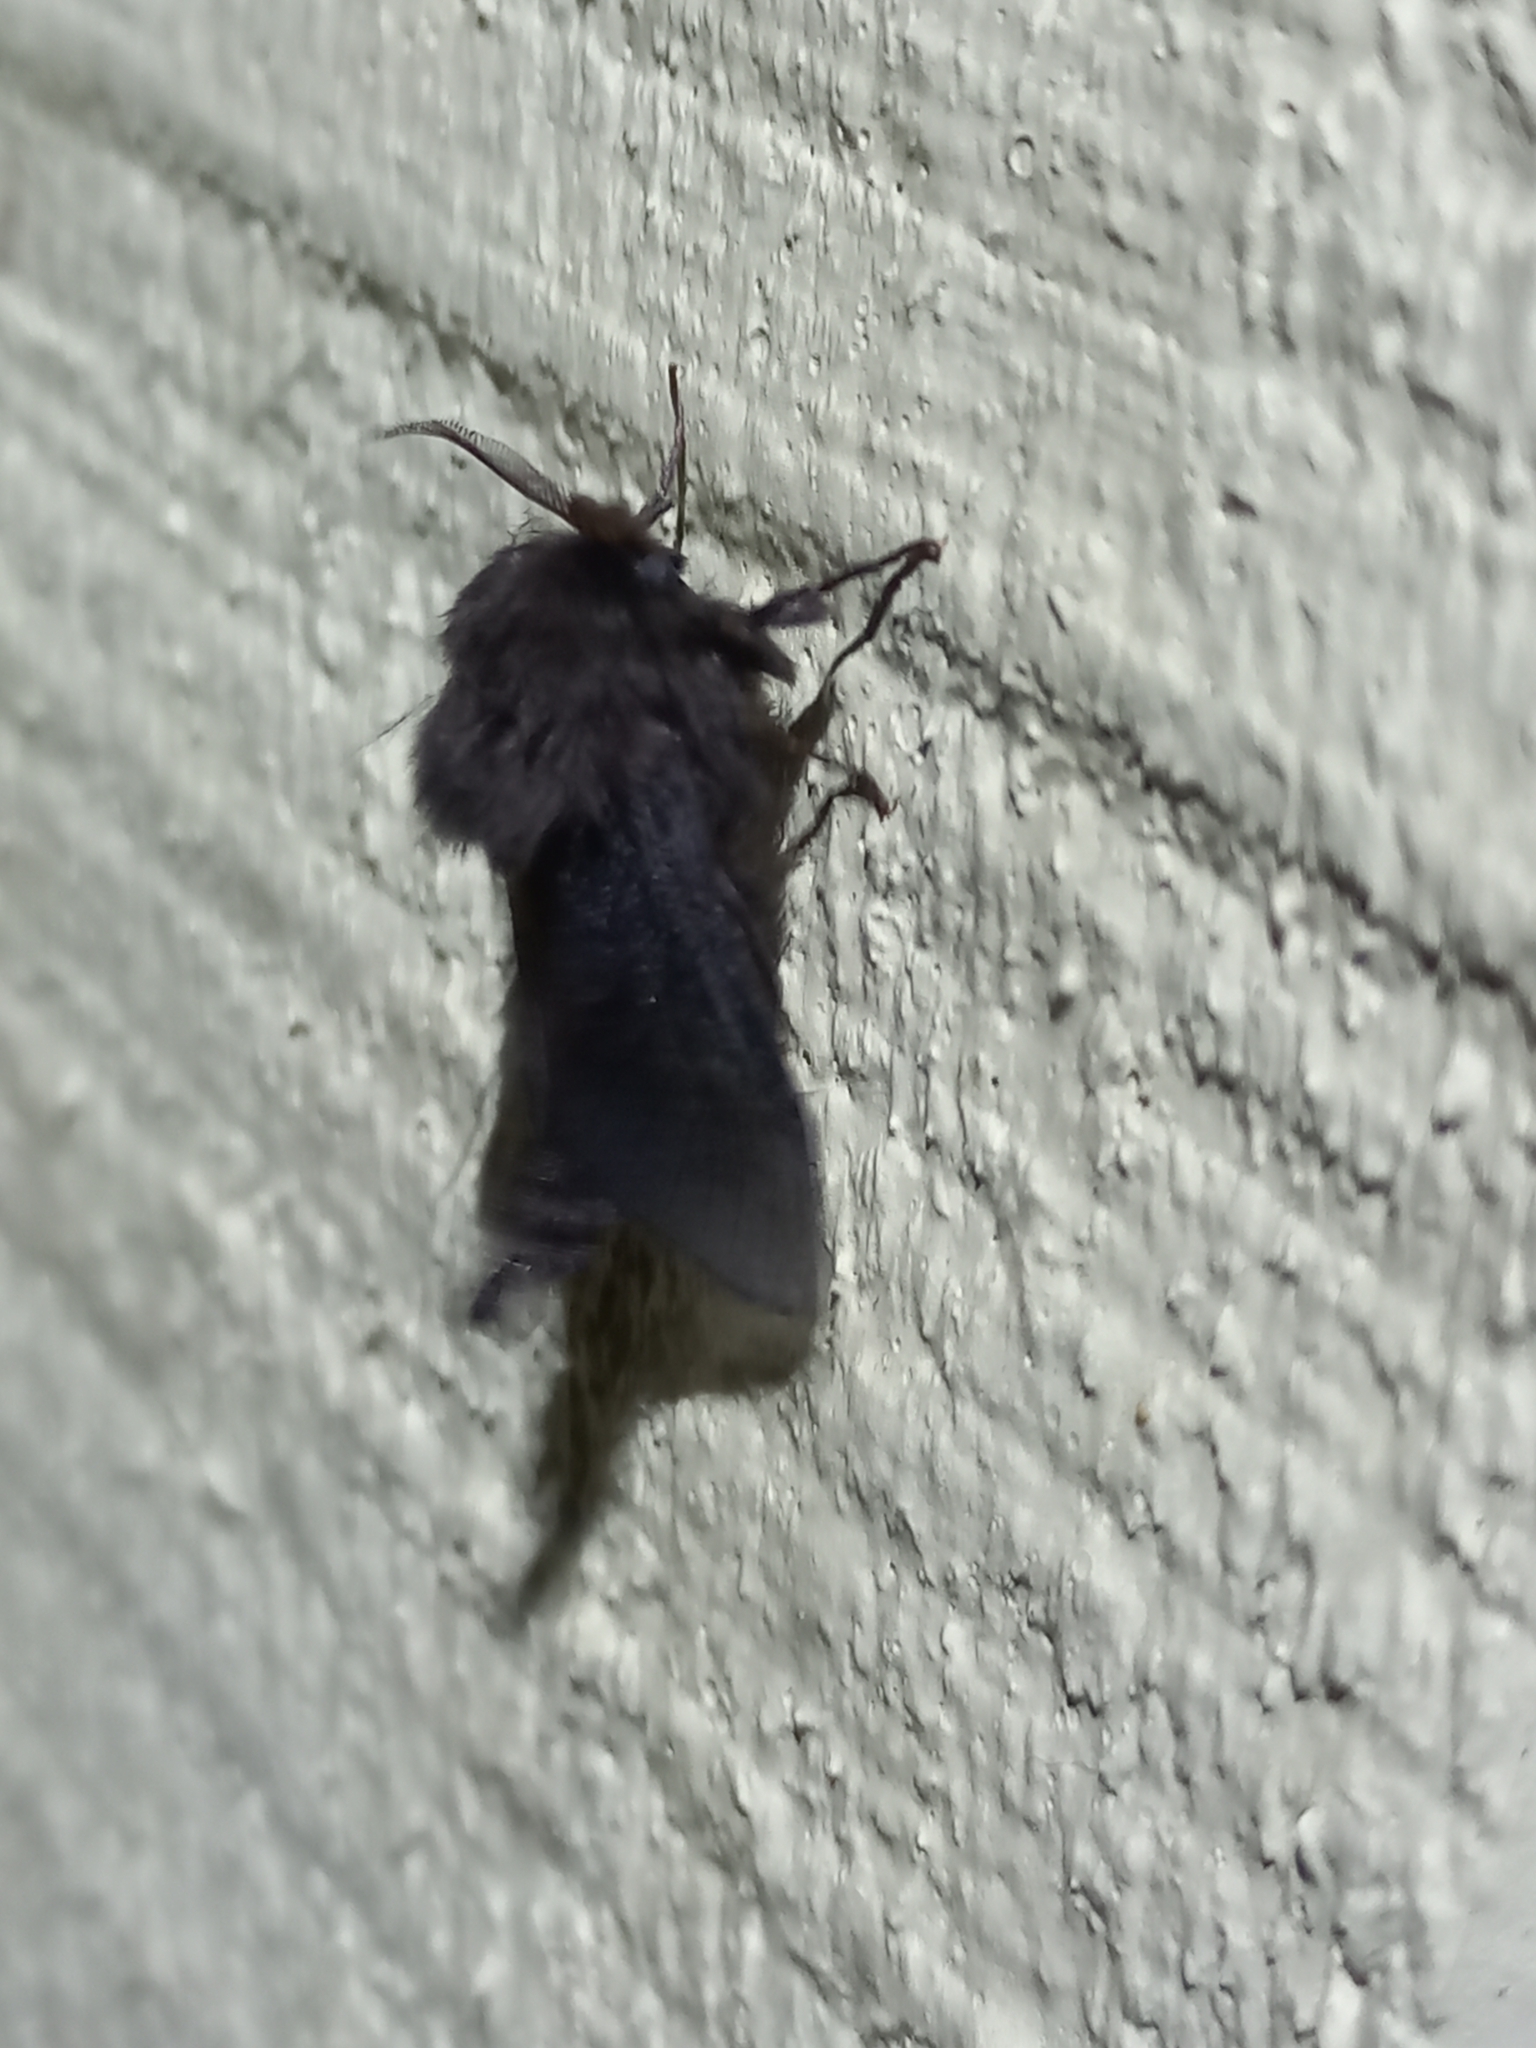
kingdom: Animalia
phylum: Arthropoda
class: Insecta
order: Lepidoptera
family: Psychidae
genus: Liothula
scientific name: Liothula omnivora
